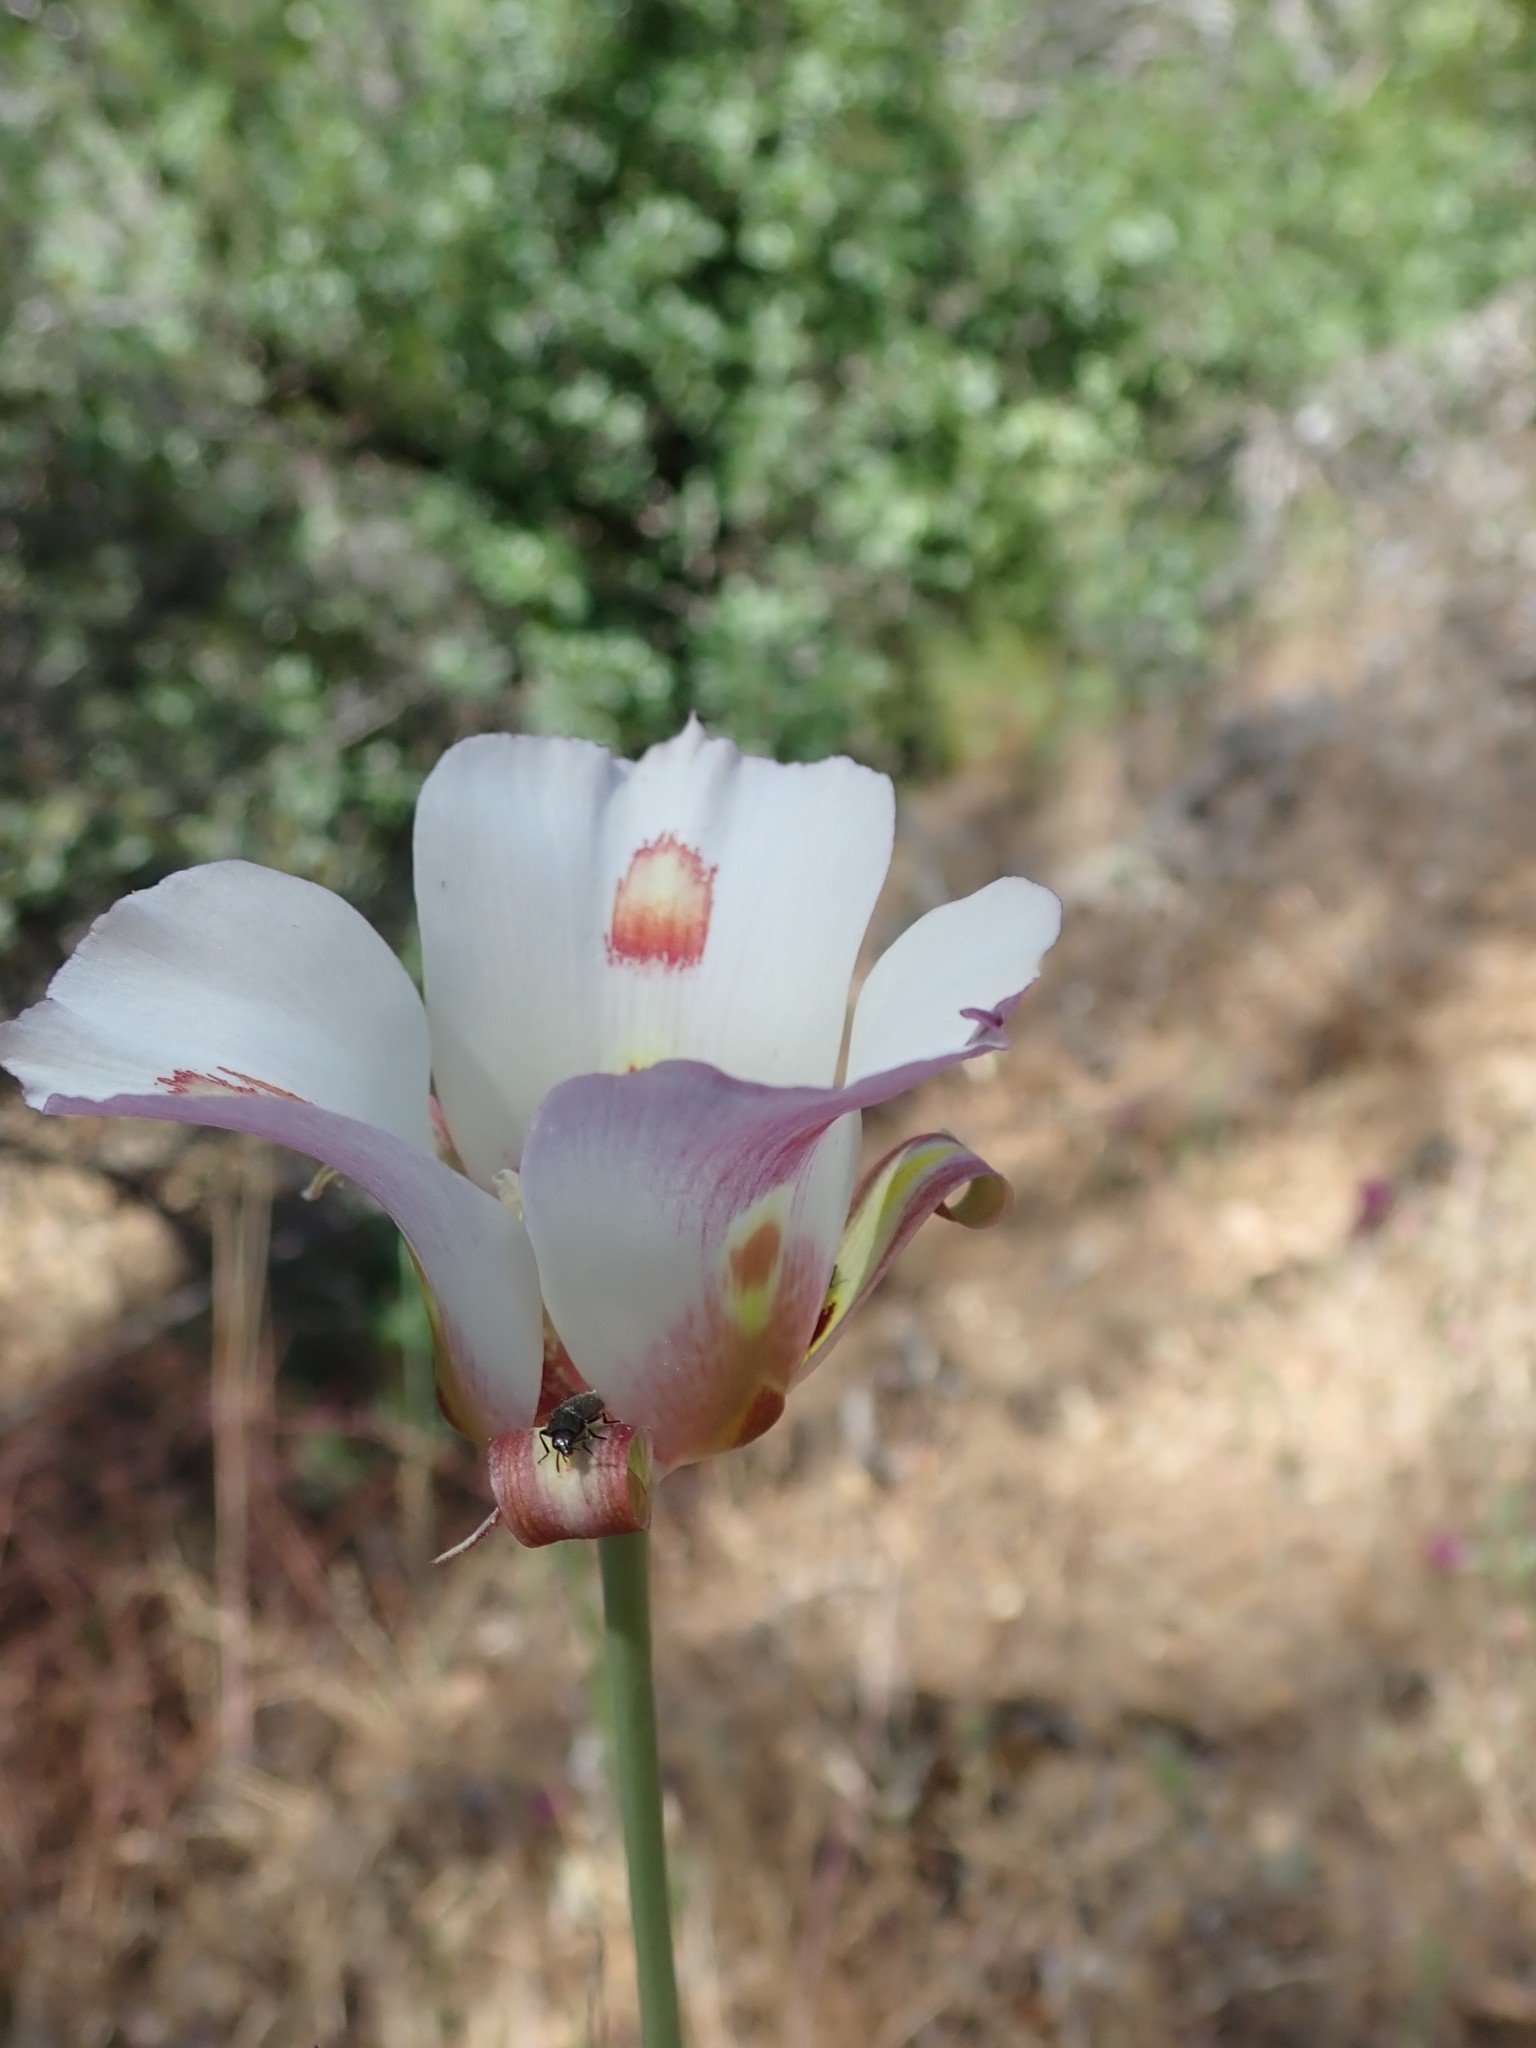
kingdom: Plantae
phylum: Tracheophyta
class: Liliopsida
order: Liliales
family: Liliaceae
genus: Calochortus
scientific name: Calochortus venustus
